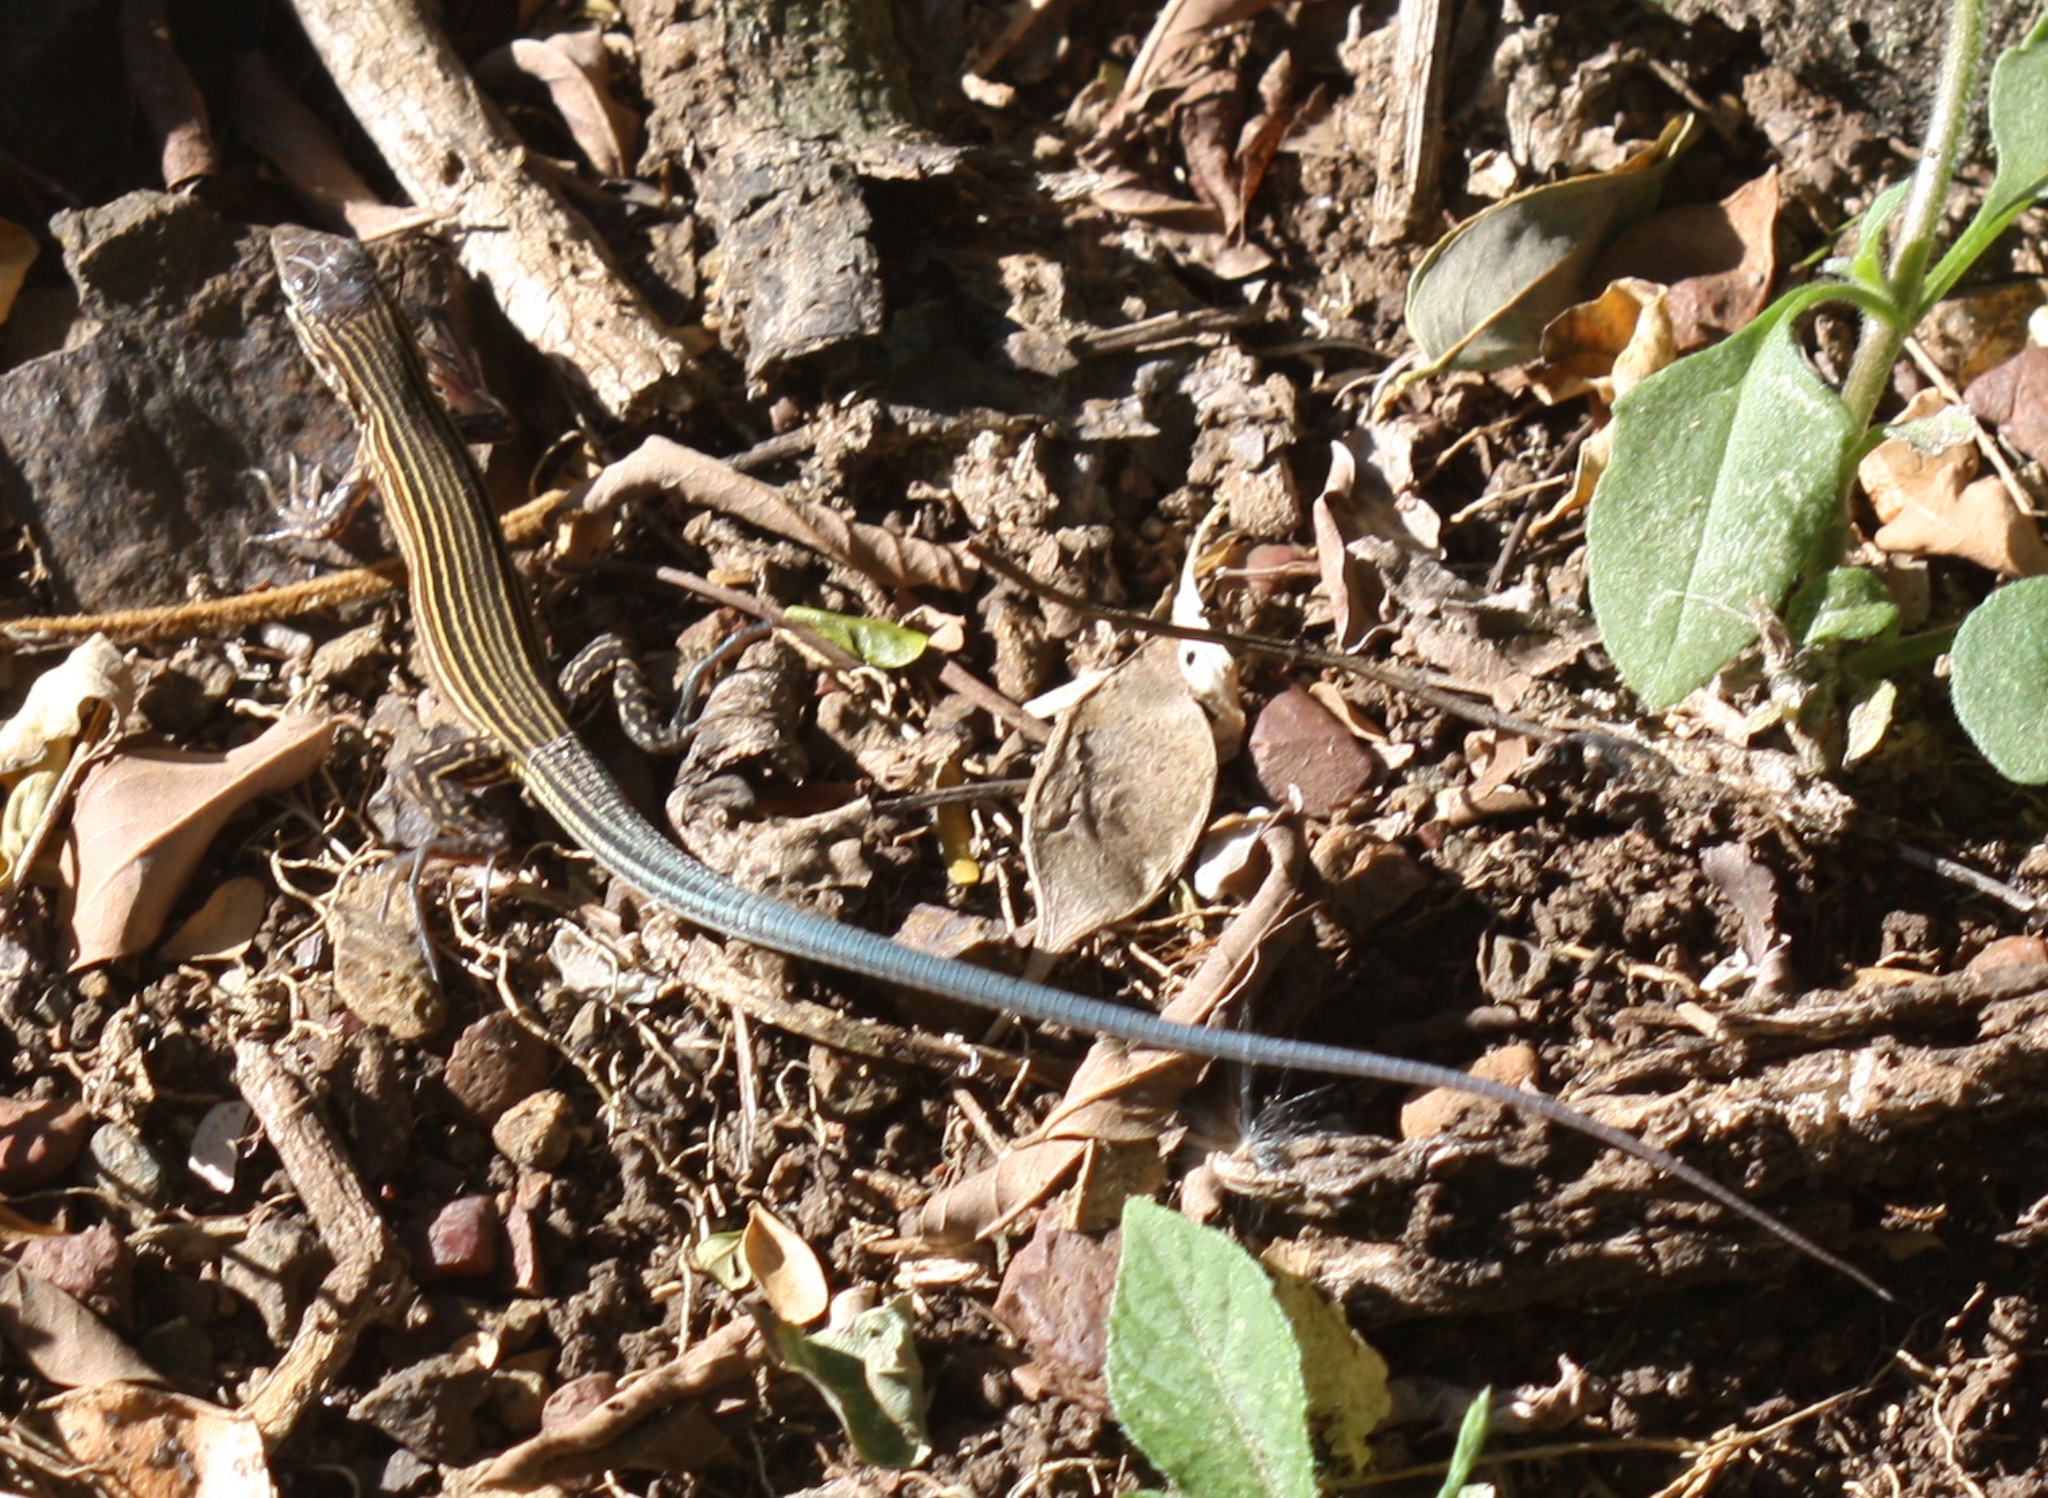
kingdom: Animalia
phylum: Chordata
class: Squamata
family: Teiidae
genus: Aspidoscelis
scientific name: Aspidoscelis deppii
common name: Blackbelly racerunner
